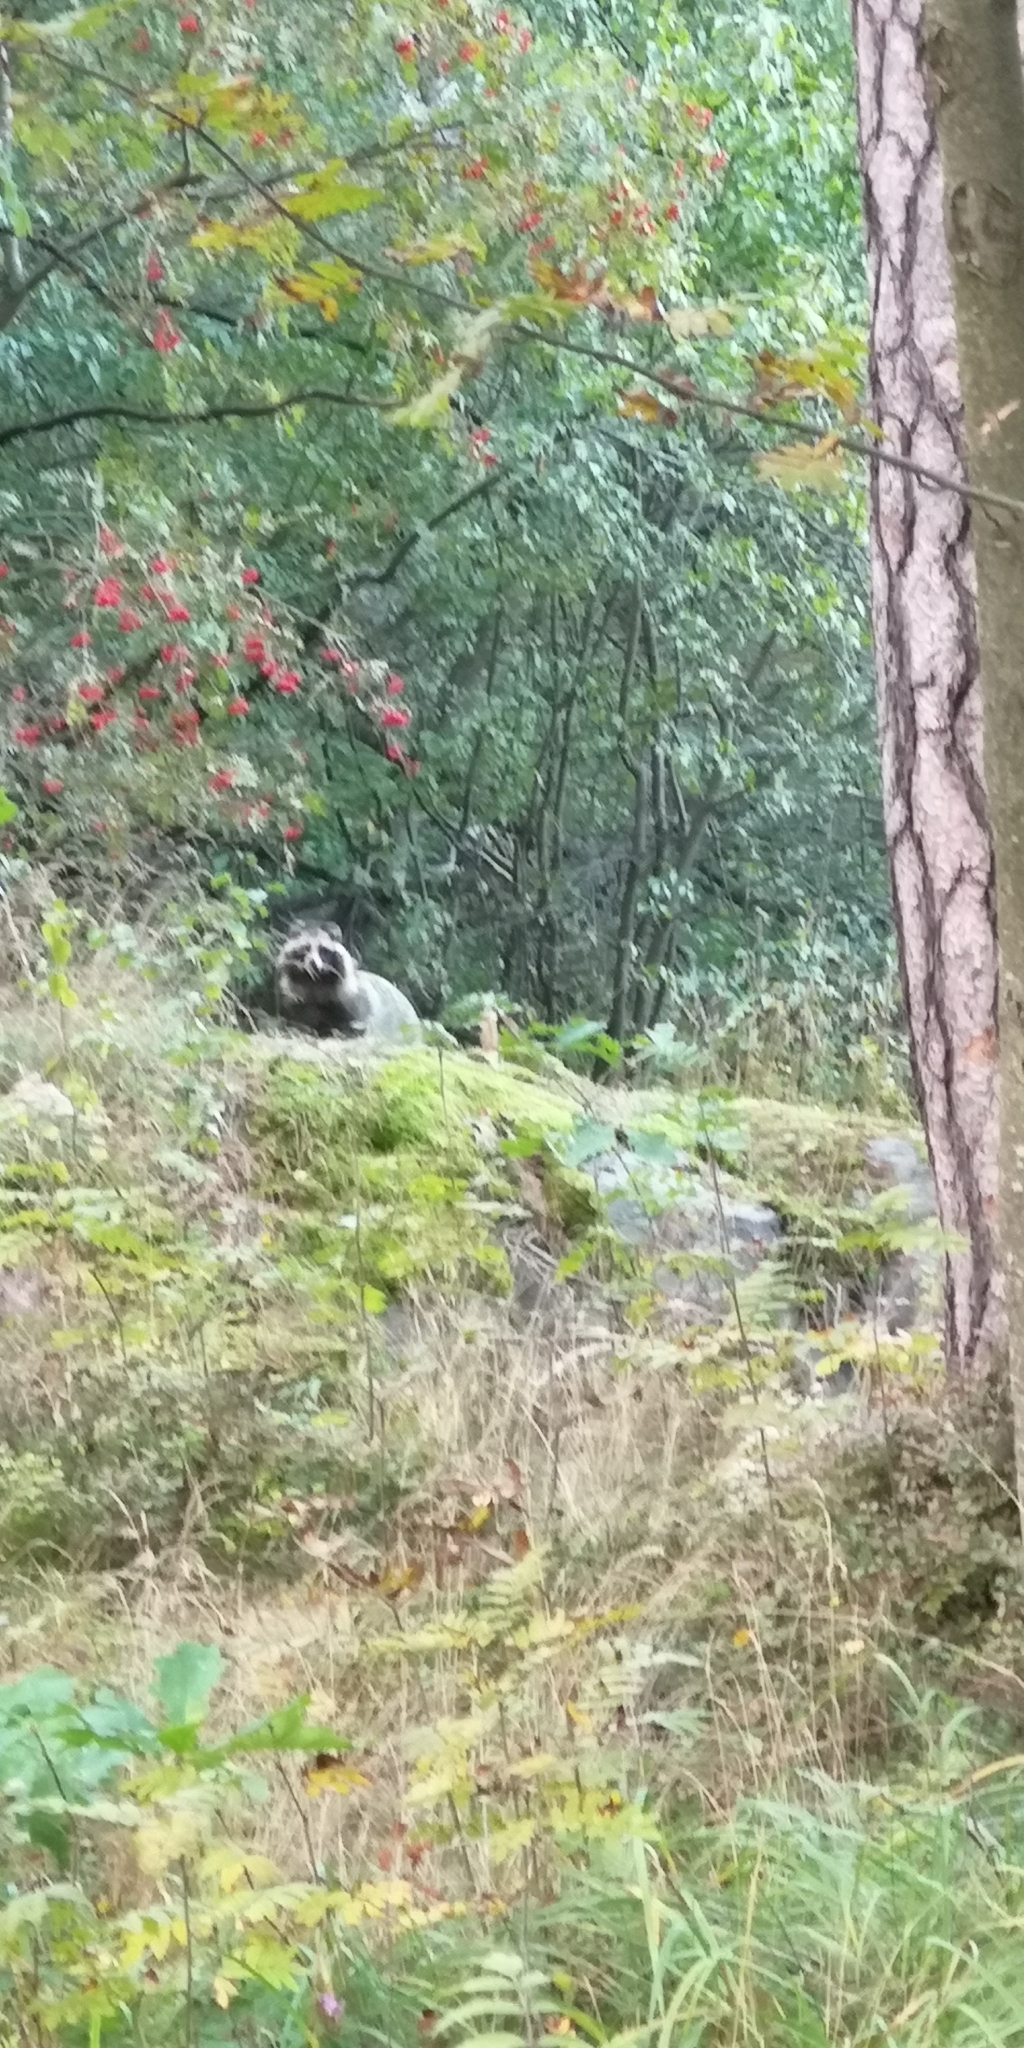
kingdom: Animalia
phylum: Chordata
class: Mammalia
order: Carnivora
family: Canidae
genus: Nyctereutes
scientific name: Nyctereutes procyonoides
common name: Raccoon dog
